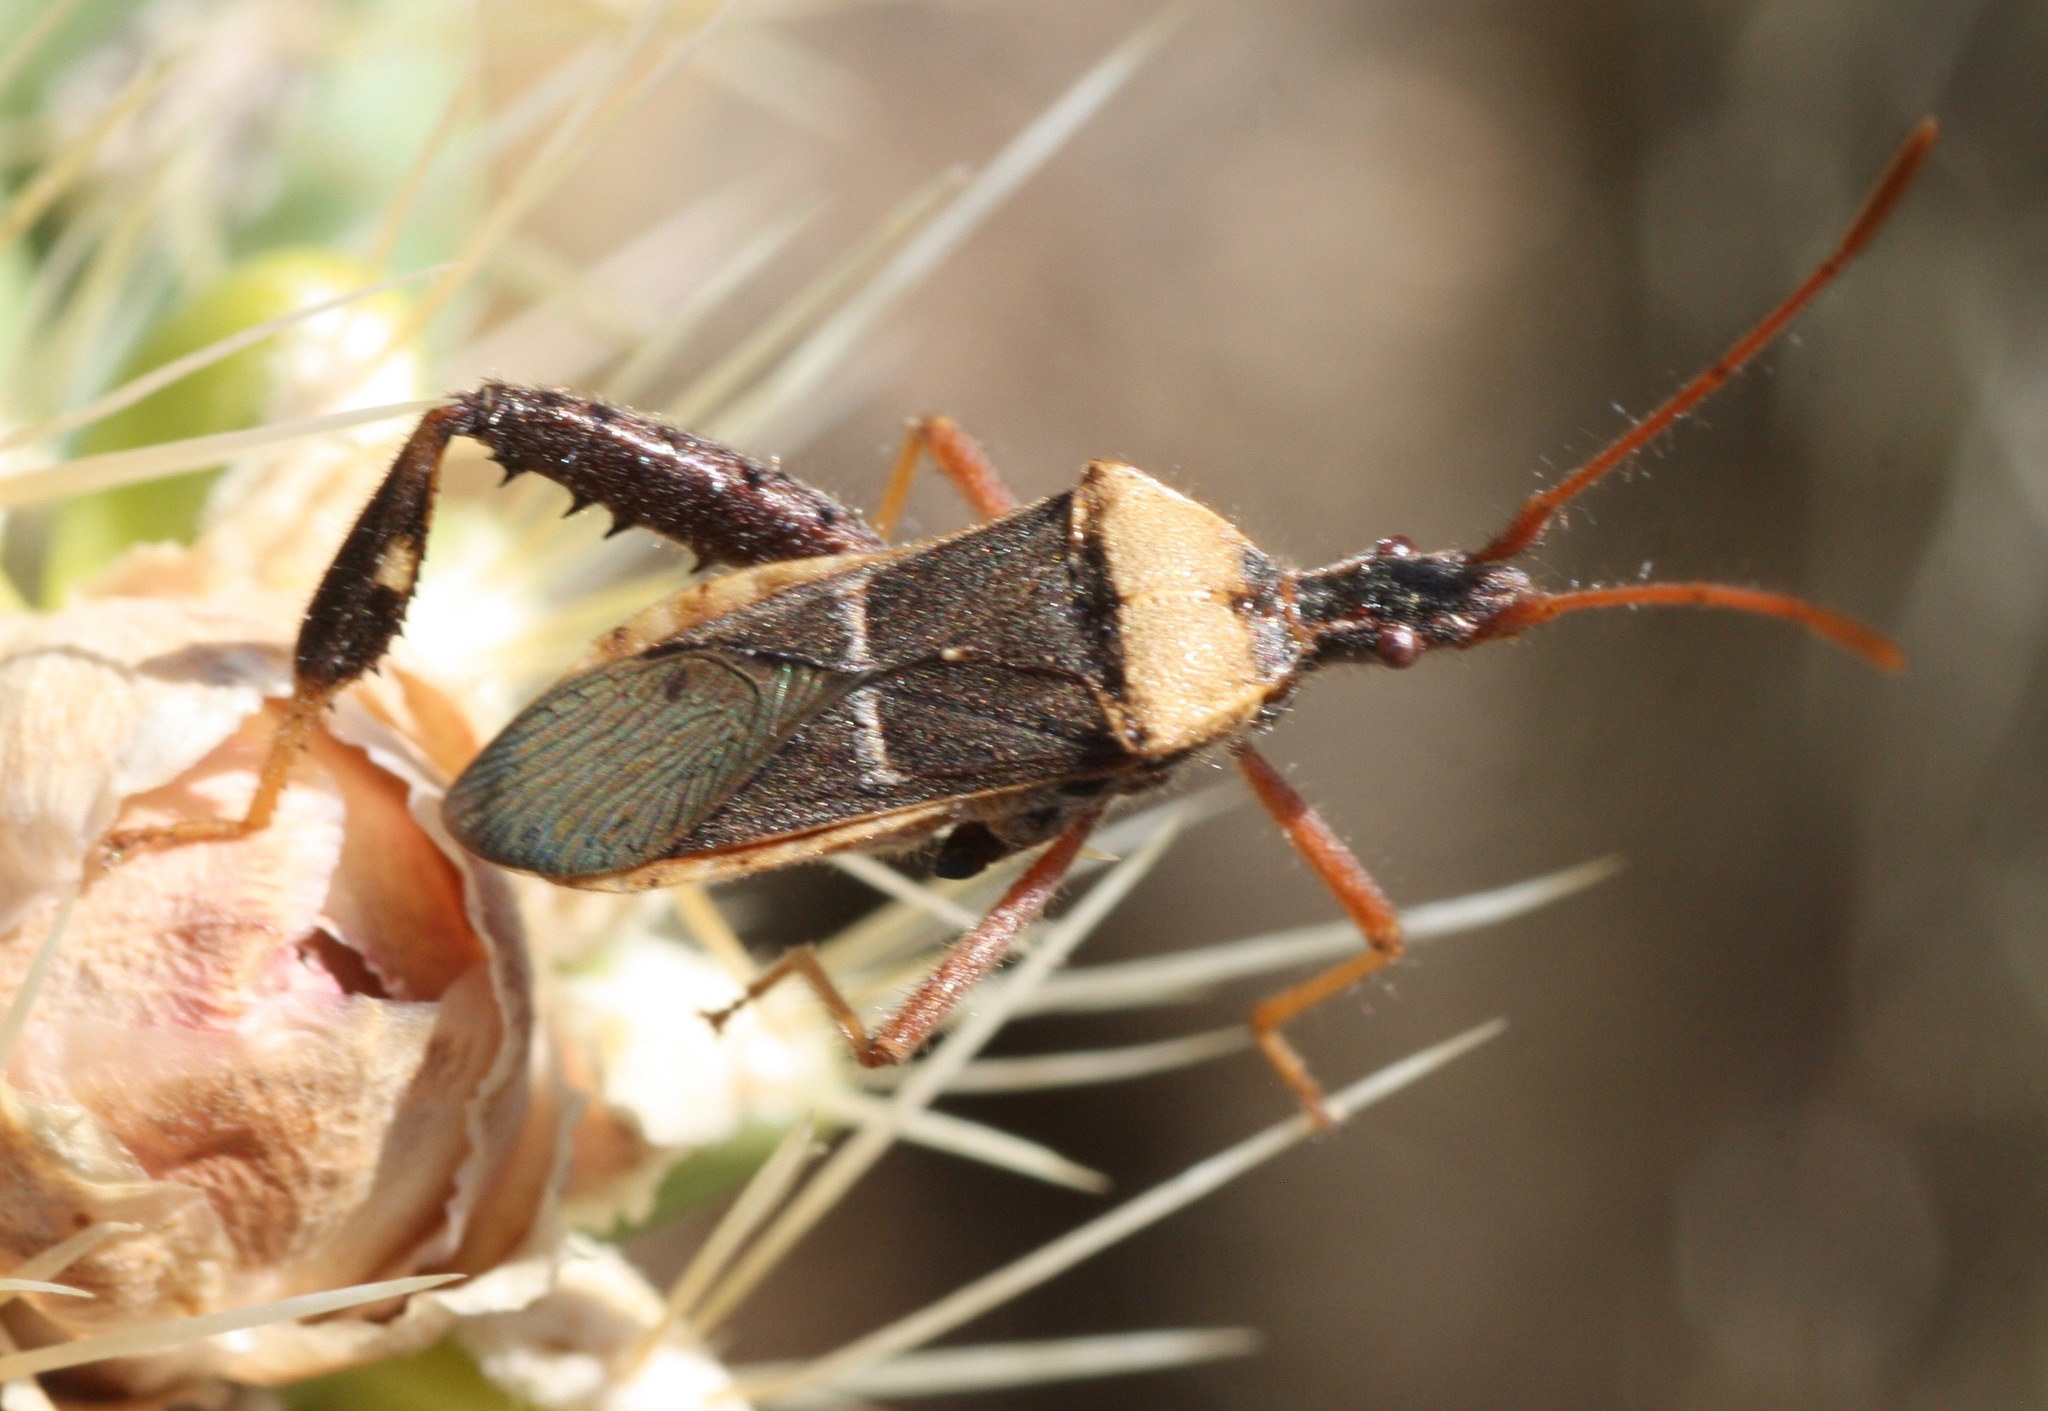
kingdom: Animalia
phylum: Arthropoda
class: Insecta
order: Hemiptera
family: Coreidae
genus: Narnia
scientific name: Narnia snowi
